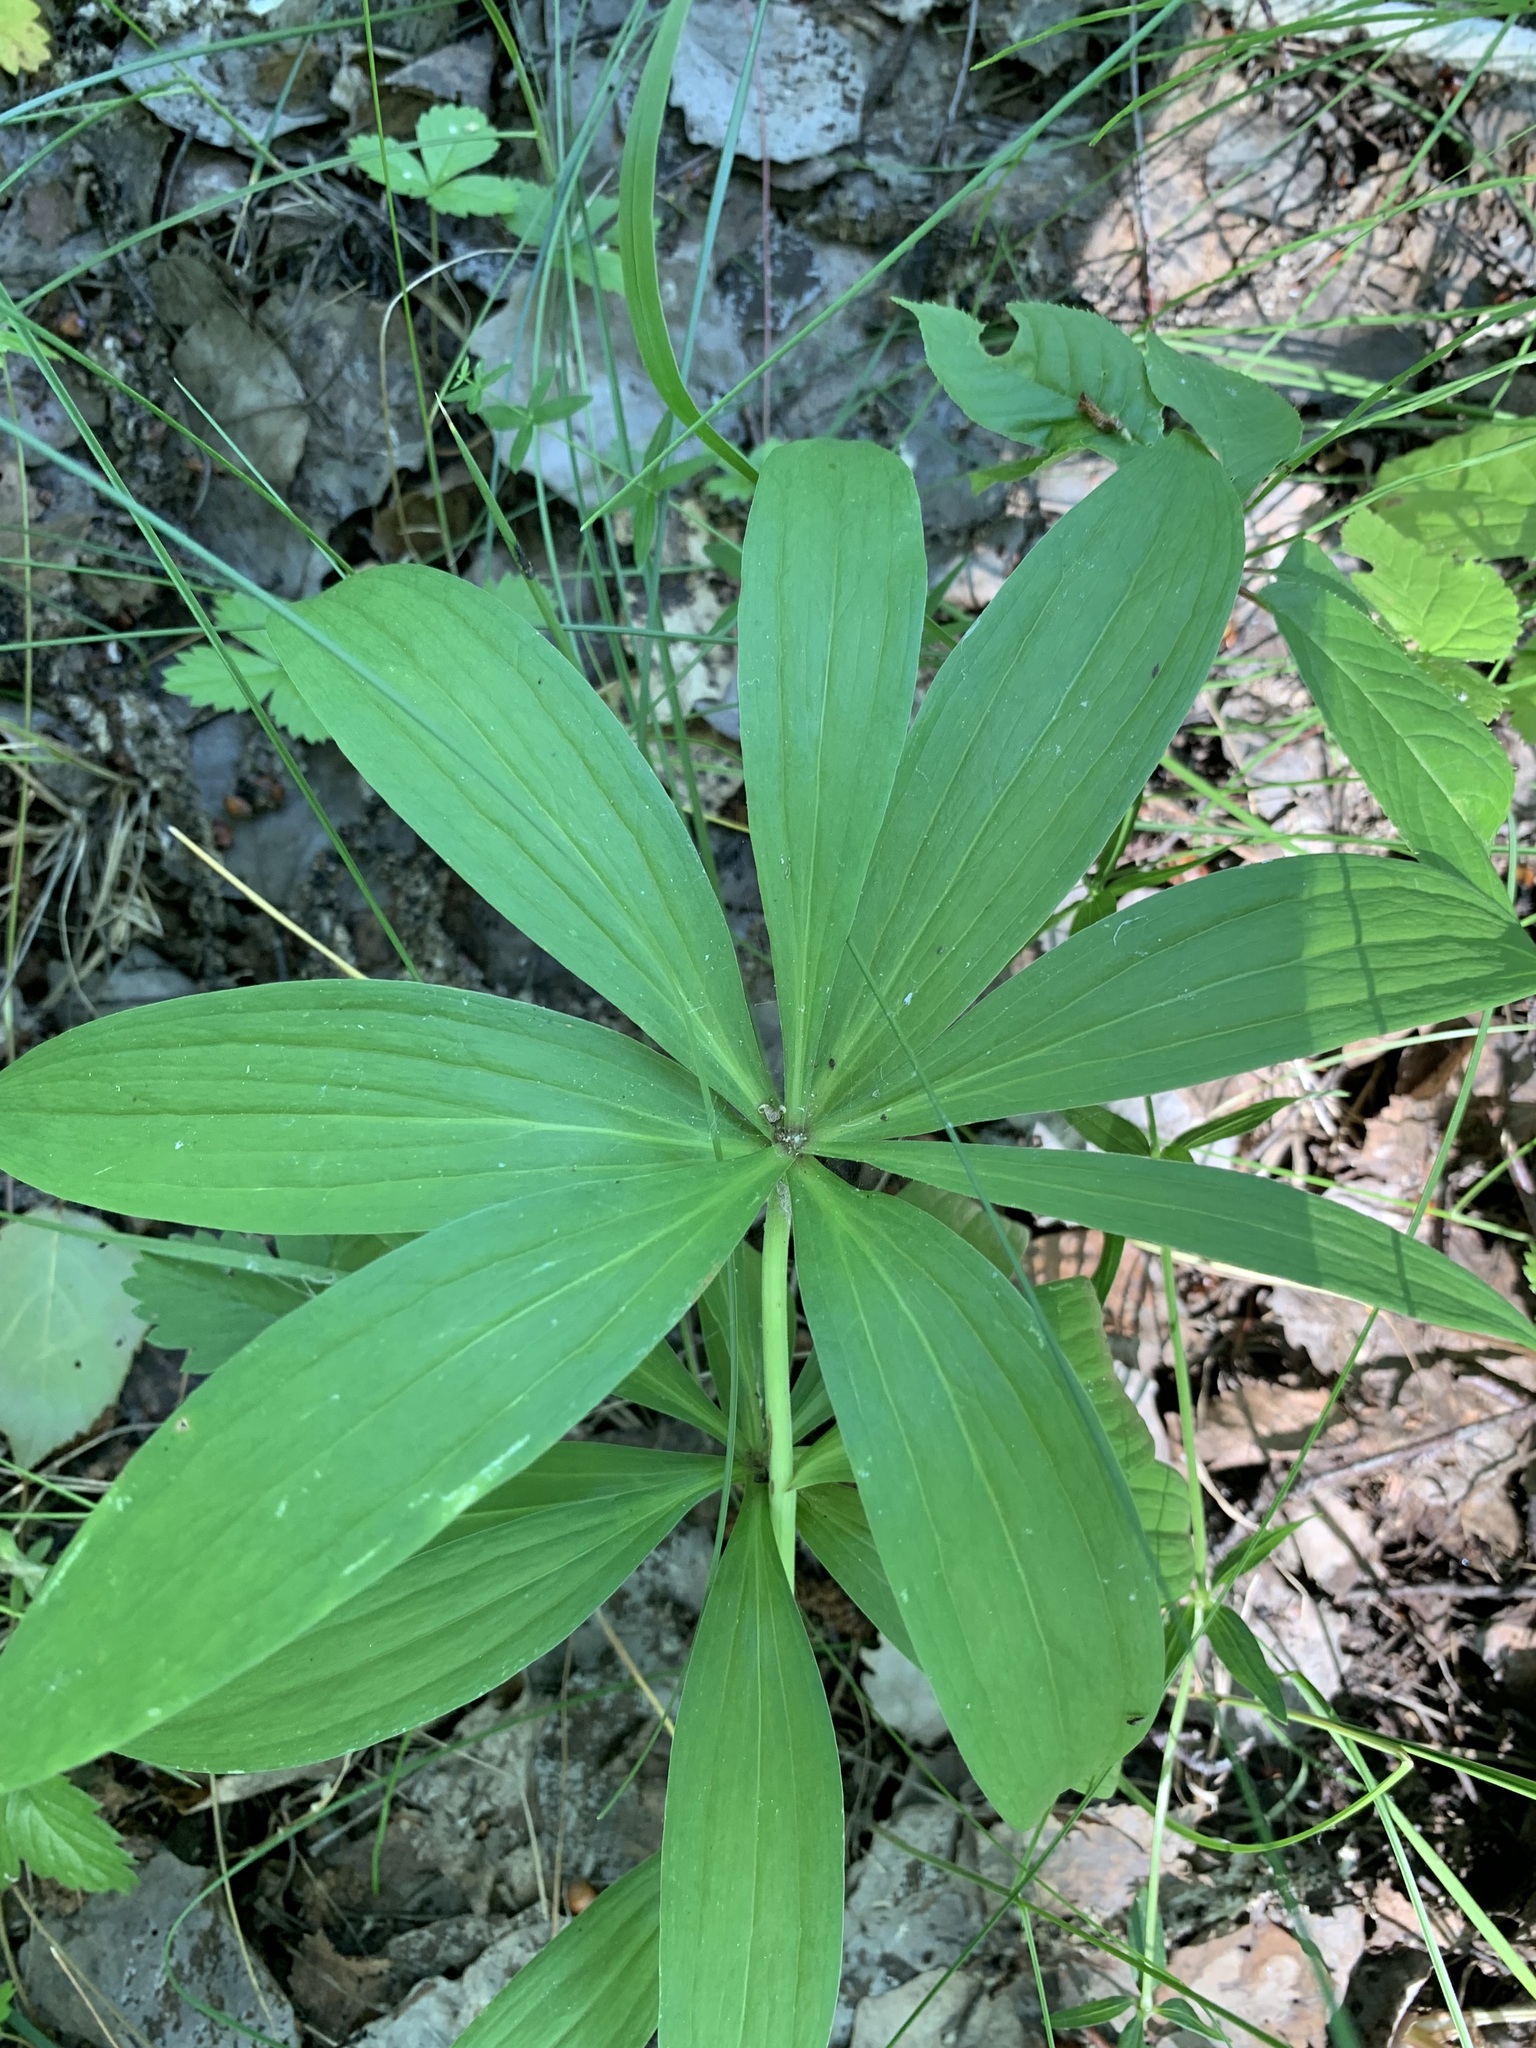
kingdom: Plantae
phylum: Tracheophyta
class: Liliopsida
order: Liliales
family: Liliaceae
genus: Lilium
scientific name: Lilium martagon
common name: Martagon lily
